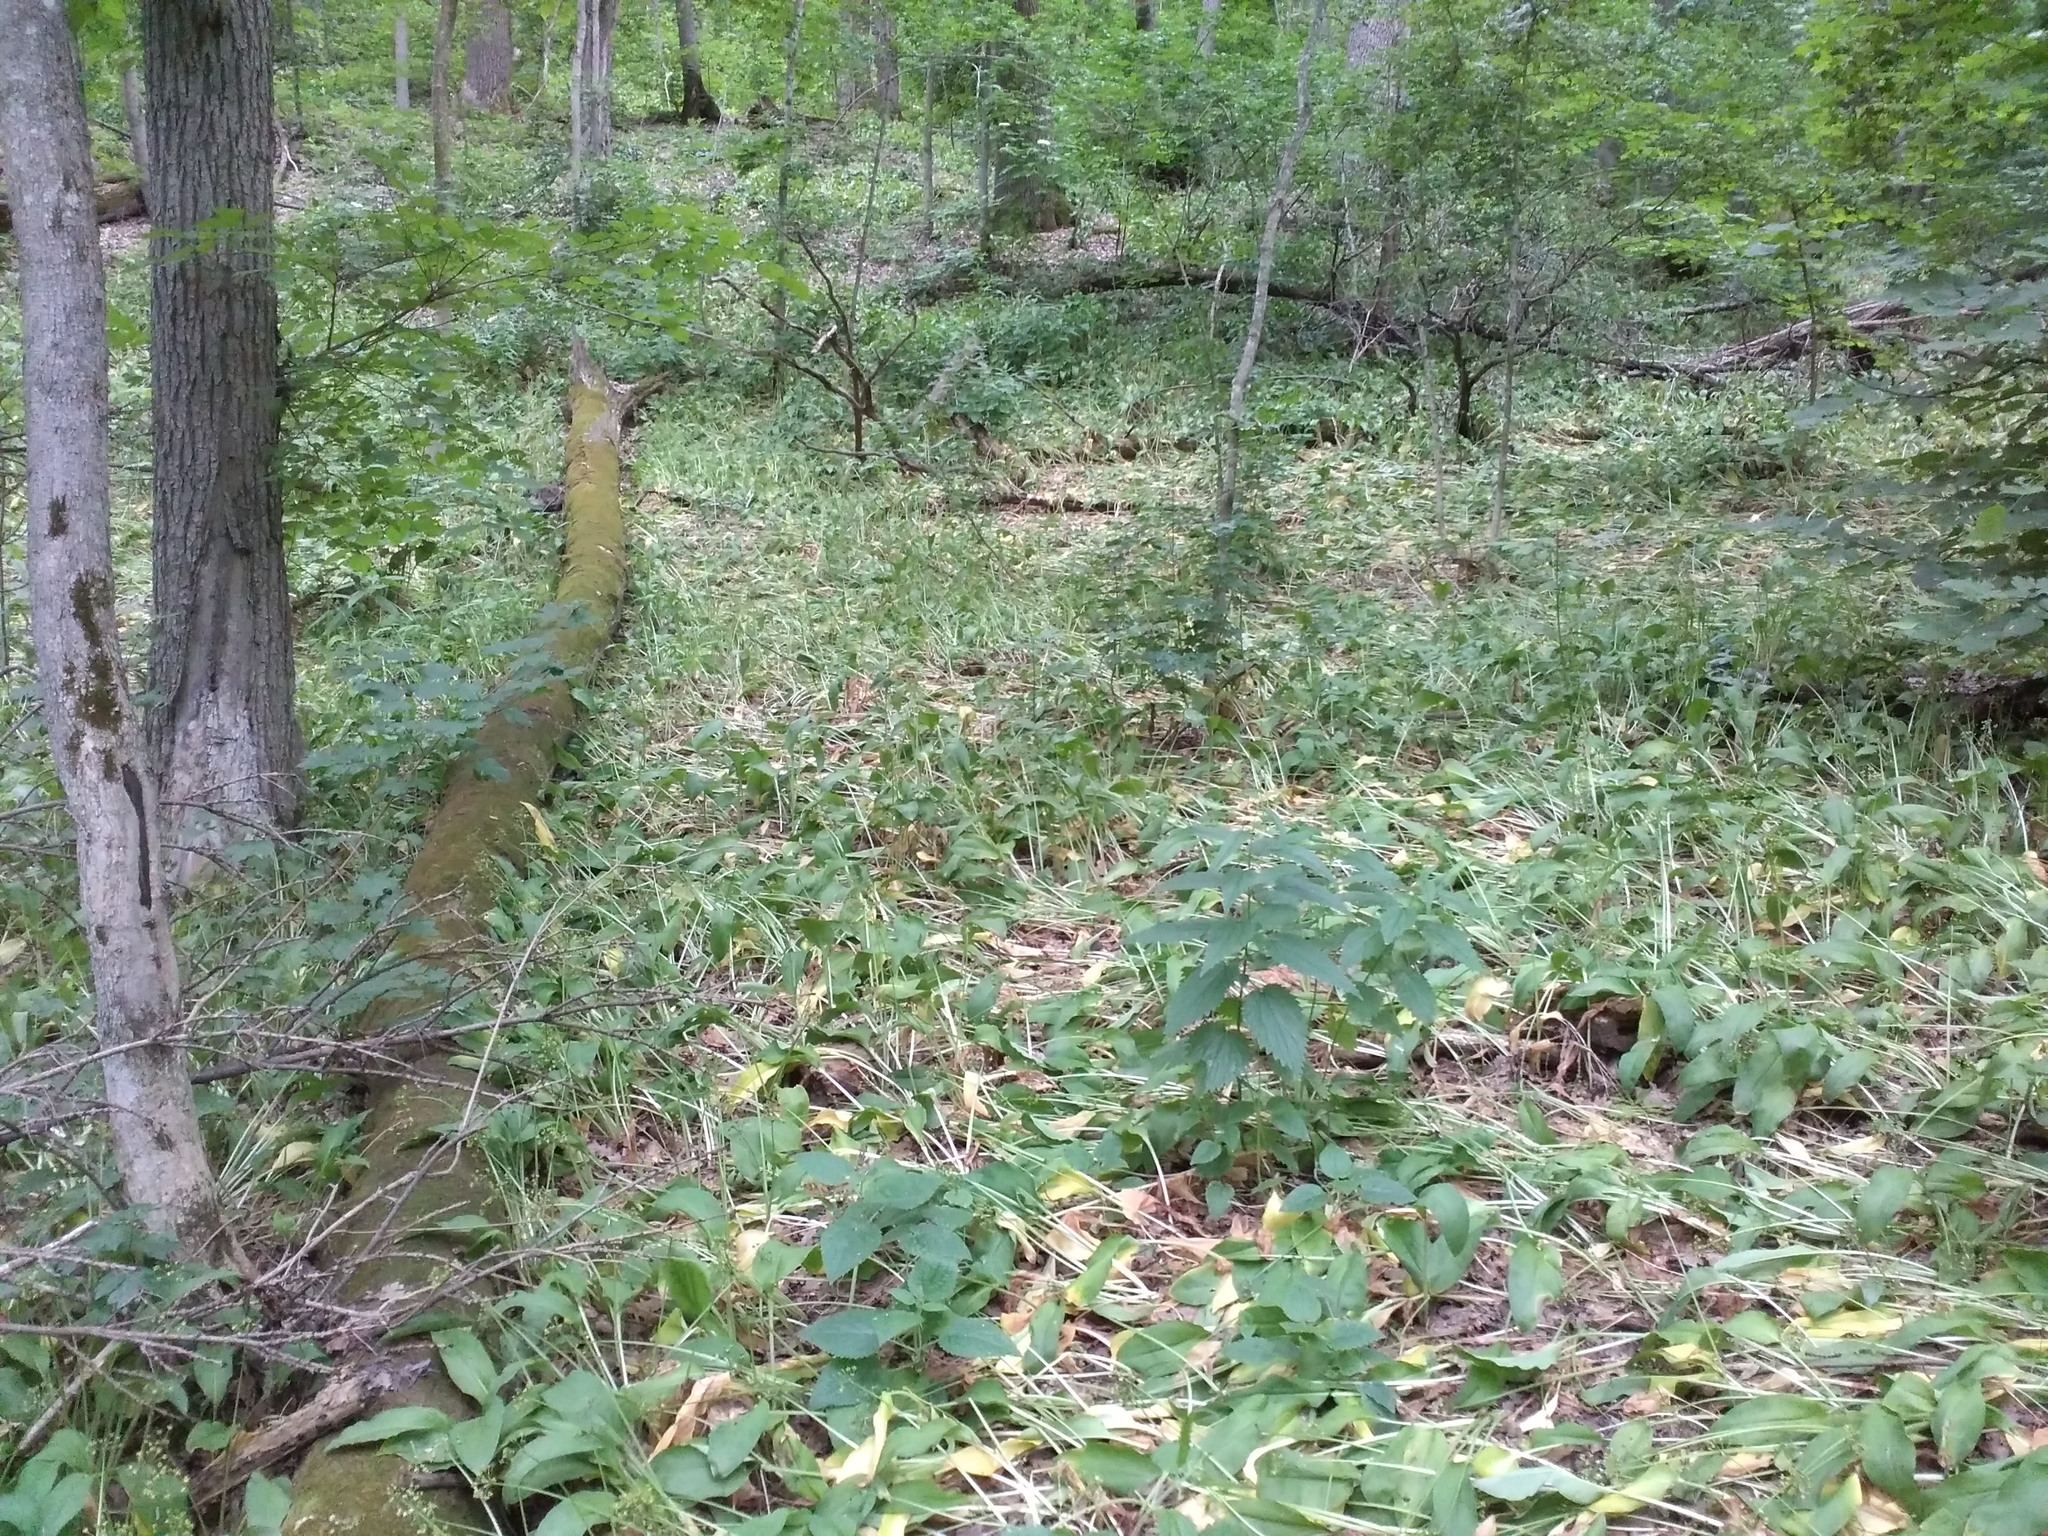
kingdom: Plantae
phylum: Tracheophyta
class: Liliopsida
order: Asparagales
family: Amaryllidaceae
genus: Allium
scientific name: Allium ursinum
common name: Ramsons
